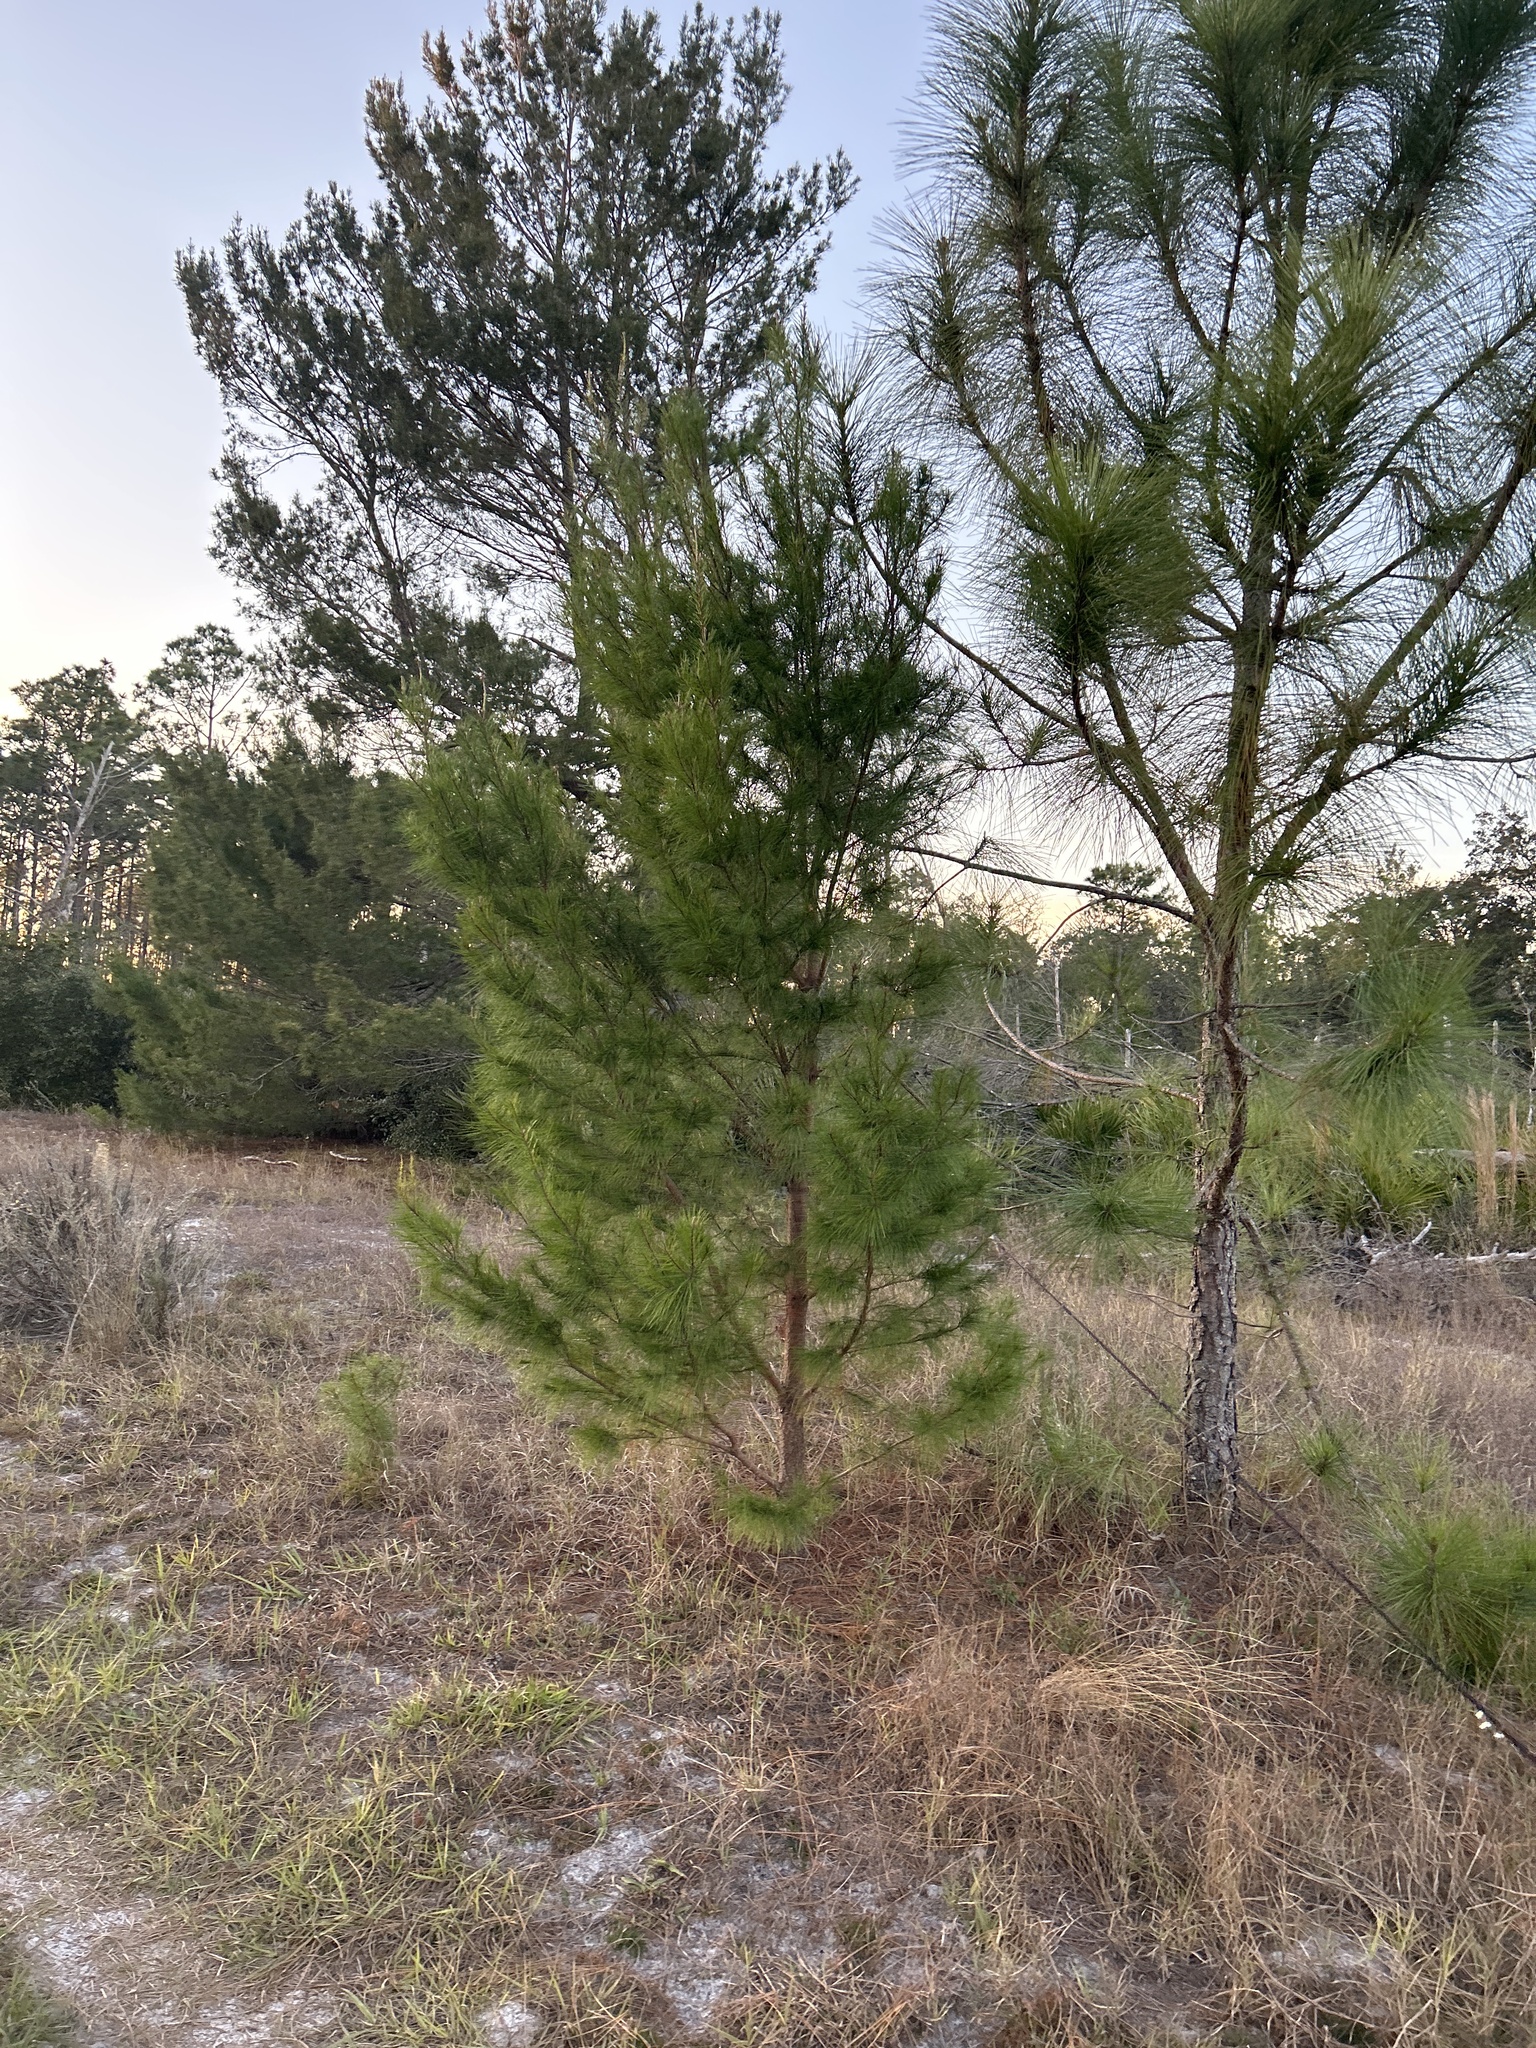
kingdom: Plantae
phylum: Tracheophyta
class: Pinopsida
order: Pinales
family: Pinaceae
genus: Pinus
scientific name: Pinus clausa
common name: Sand pine
